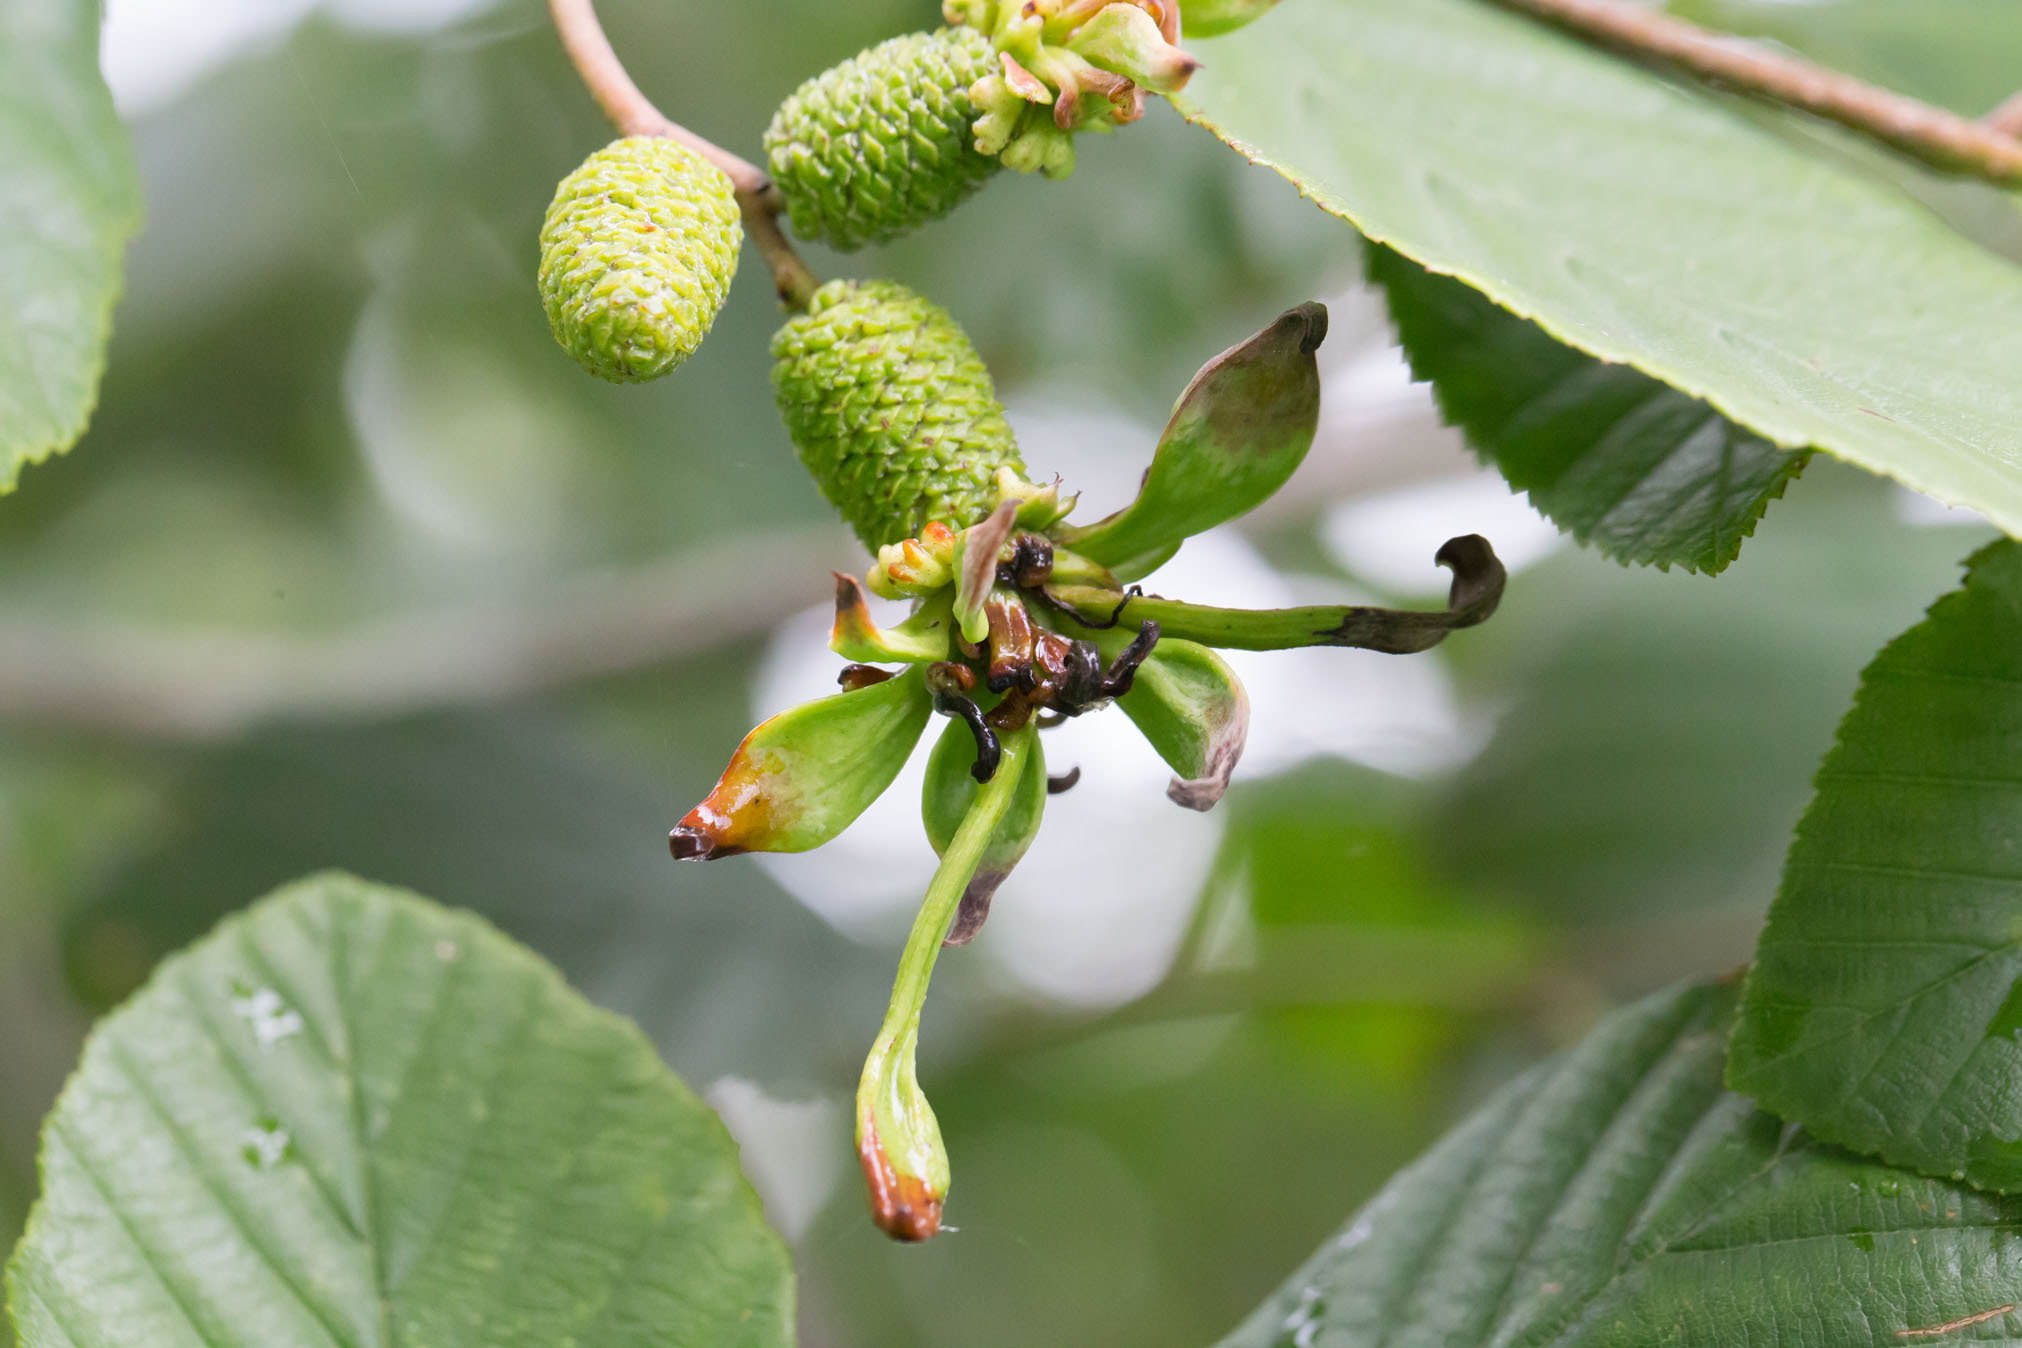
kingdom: Fungi
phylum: Ascomycota
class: Taphrinomycetes
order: Taphrinales
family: Taphrinaceae
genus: Taphrina
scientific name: Taphrina robinsoniana
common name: Eastern american alder tongue gall fungus
